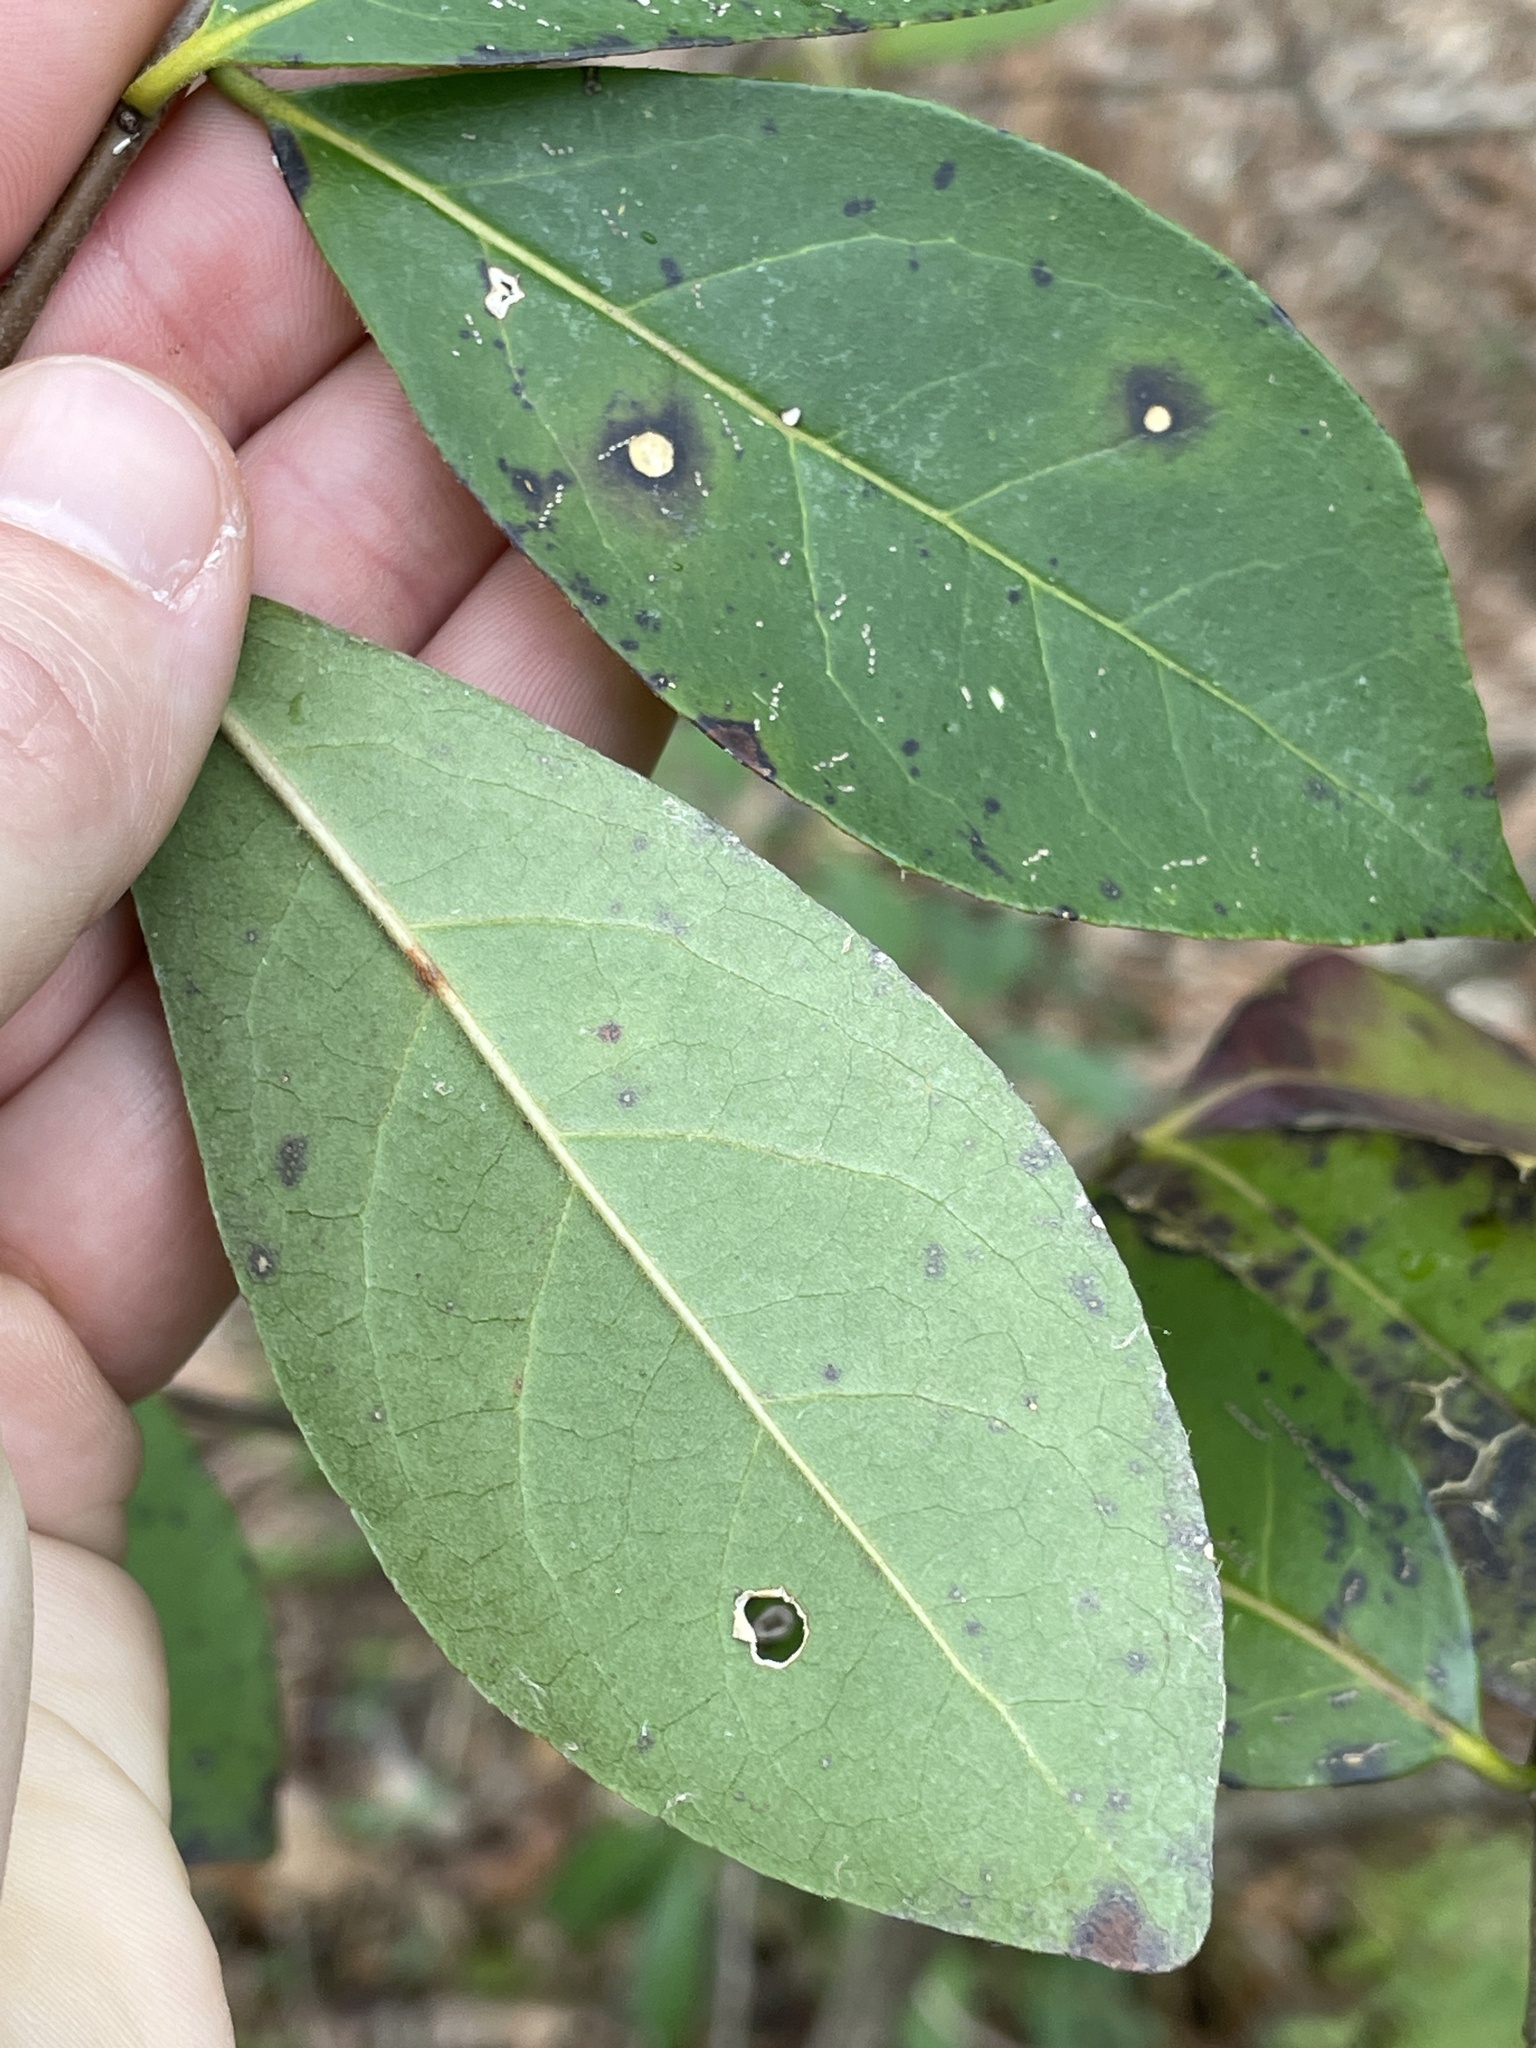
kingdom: Plantae
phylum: Tracheophyta
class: Magnoliopsida
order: Ericales
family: Symplocaceae
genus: Symplocos
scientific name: Symplocos tinctoria
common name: Horse-sugar
